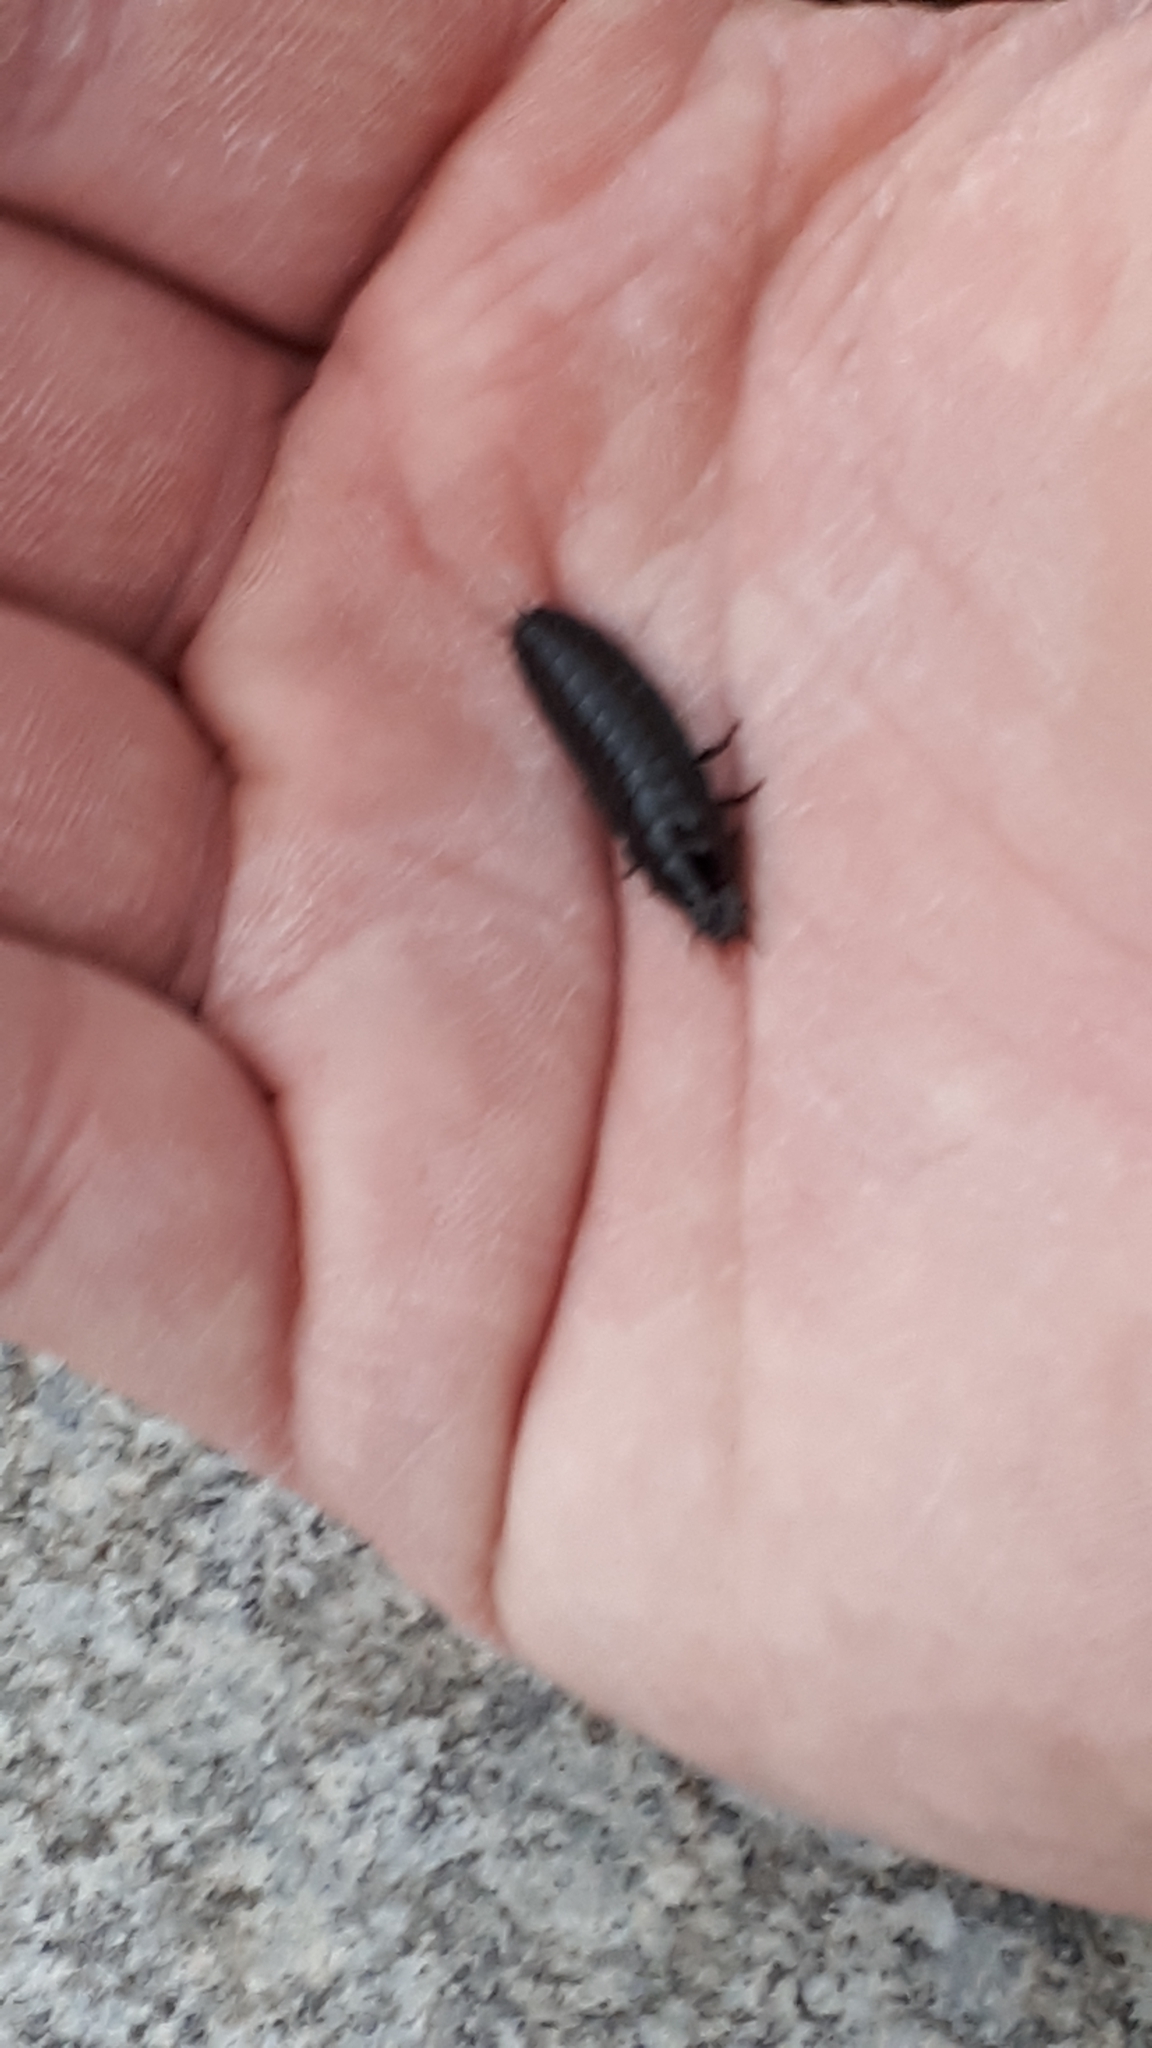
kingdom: Animalia
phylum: Arthropoda
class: Insecta
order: Coleoptera
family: Carabidae
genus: Carabus
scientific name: Carabus
